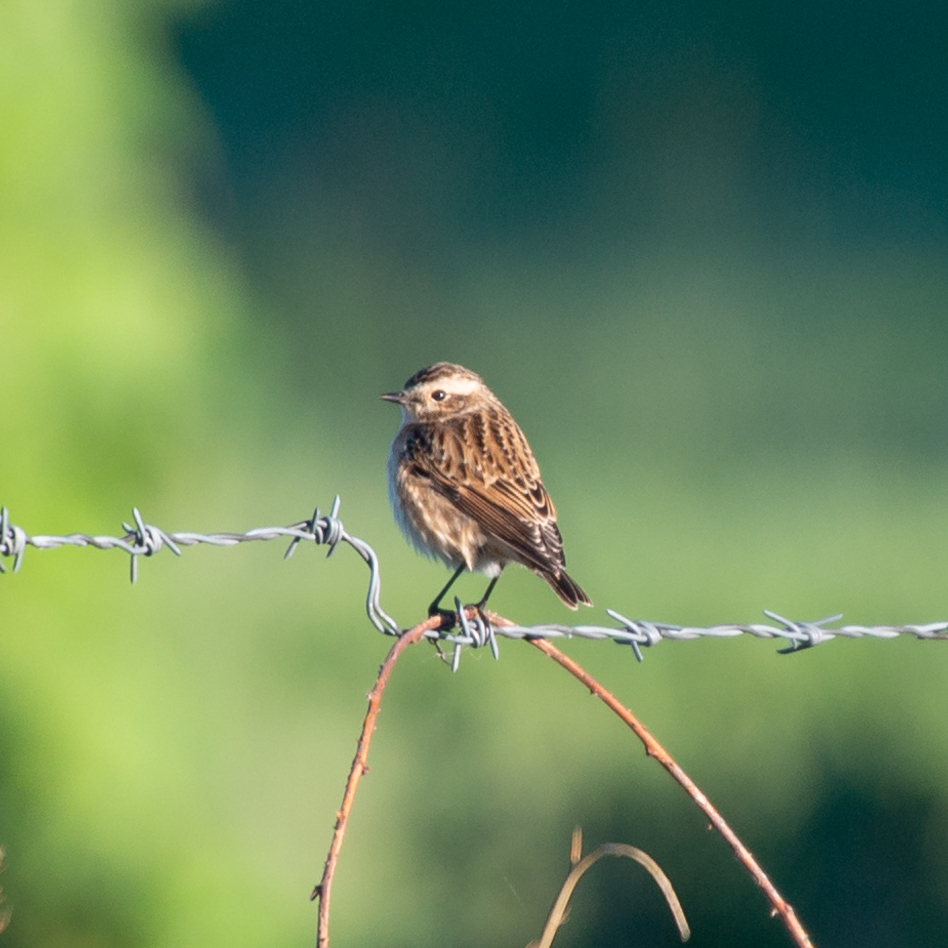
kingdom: Animalia
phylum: Chordata
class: Aves
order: Passeriformes
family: Muscicapidae
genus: Saxicola
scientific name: Saxicola rubetra
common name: Whinchat
